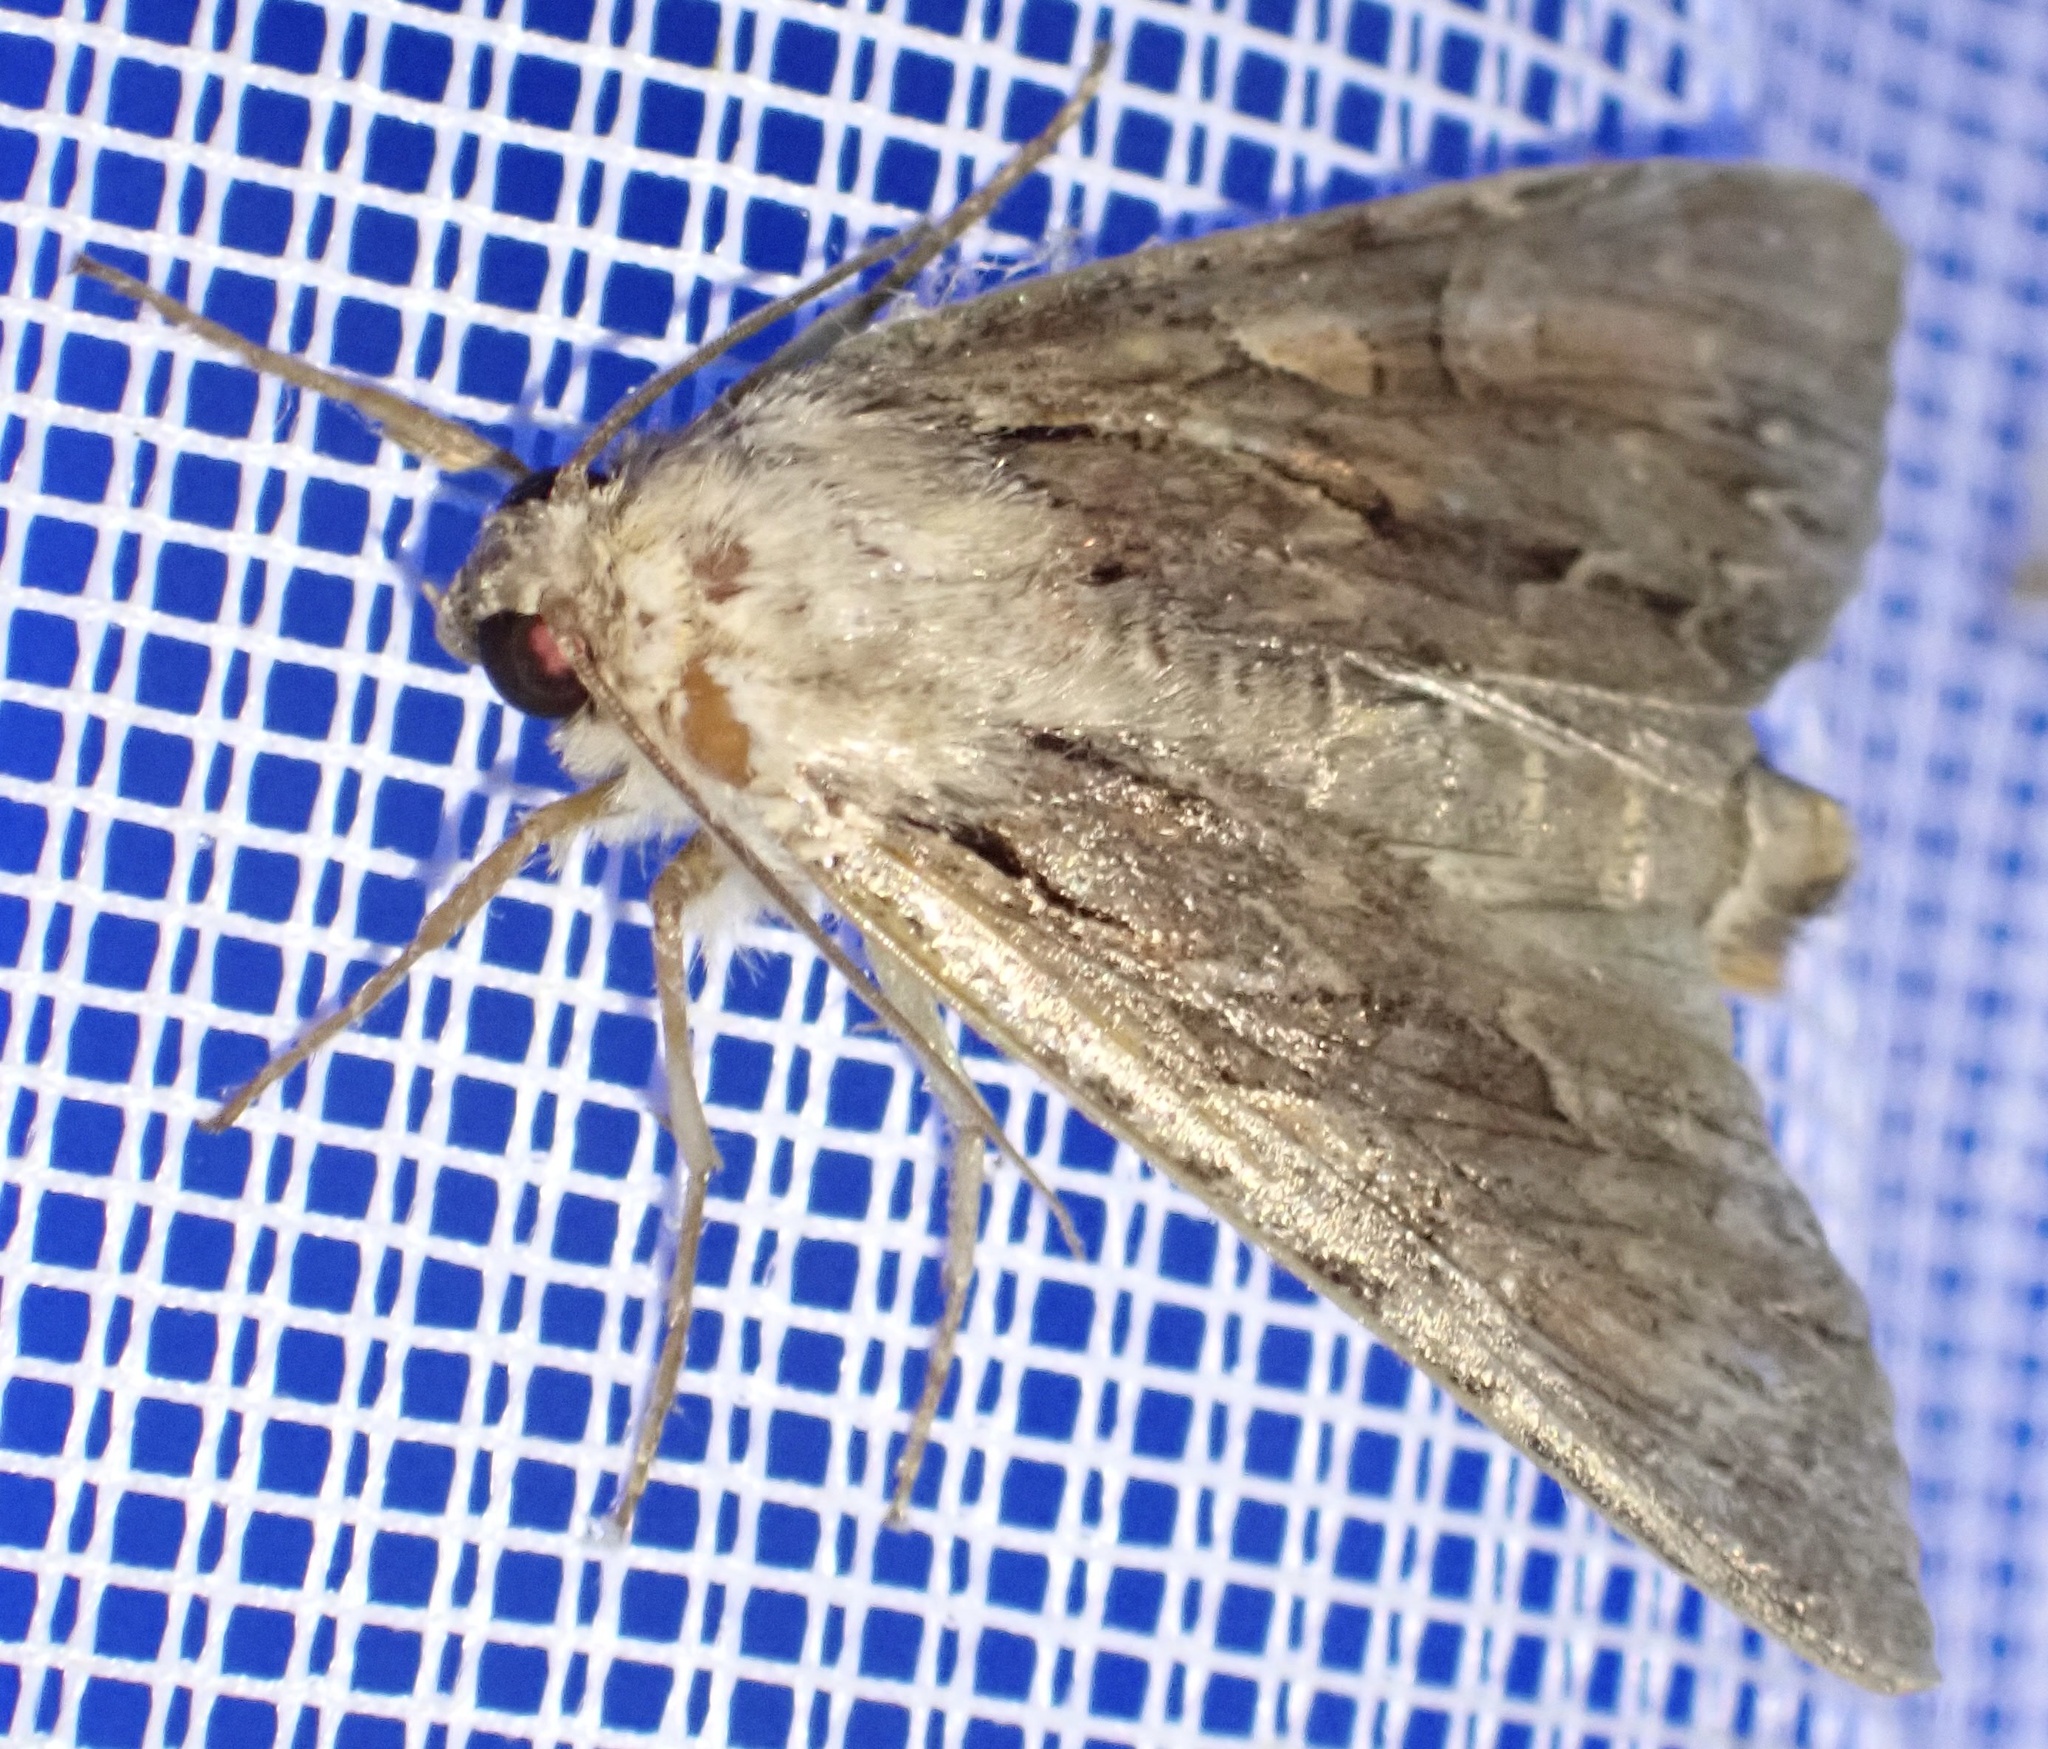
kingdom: Animalia
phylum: Arthropoda
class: Insecta
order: Lepidoptera
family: Noctuidae
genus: Apamea
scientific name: Apamea monoglypha
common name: Dark arches
